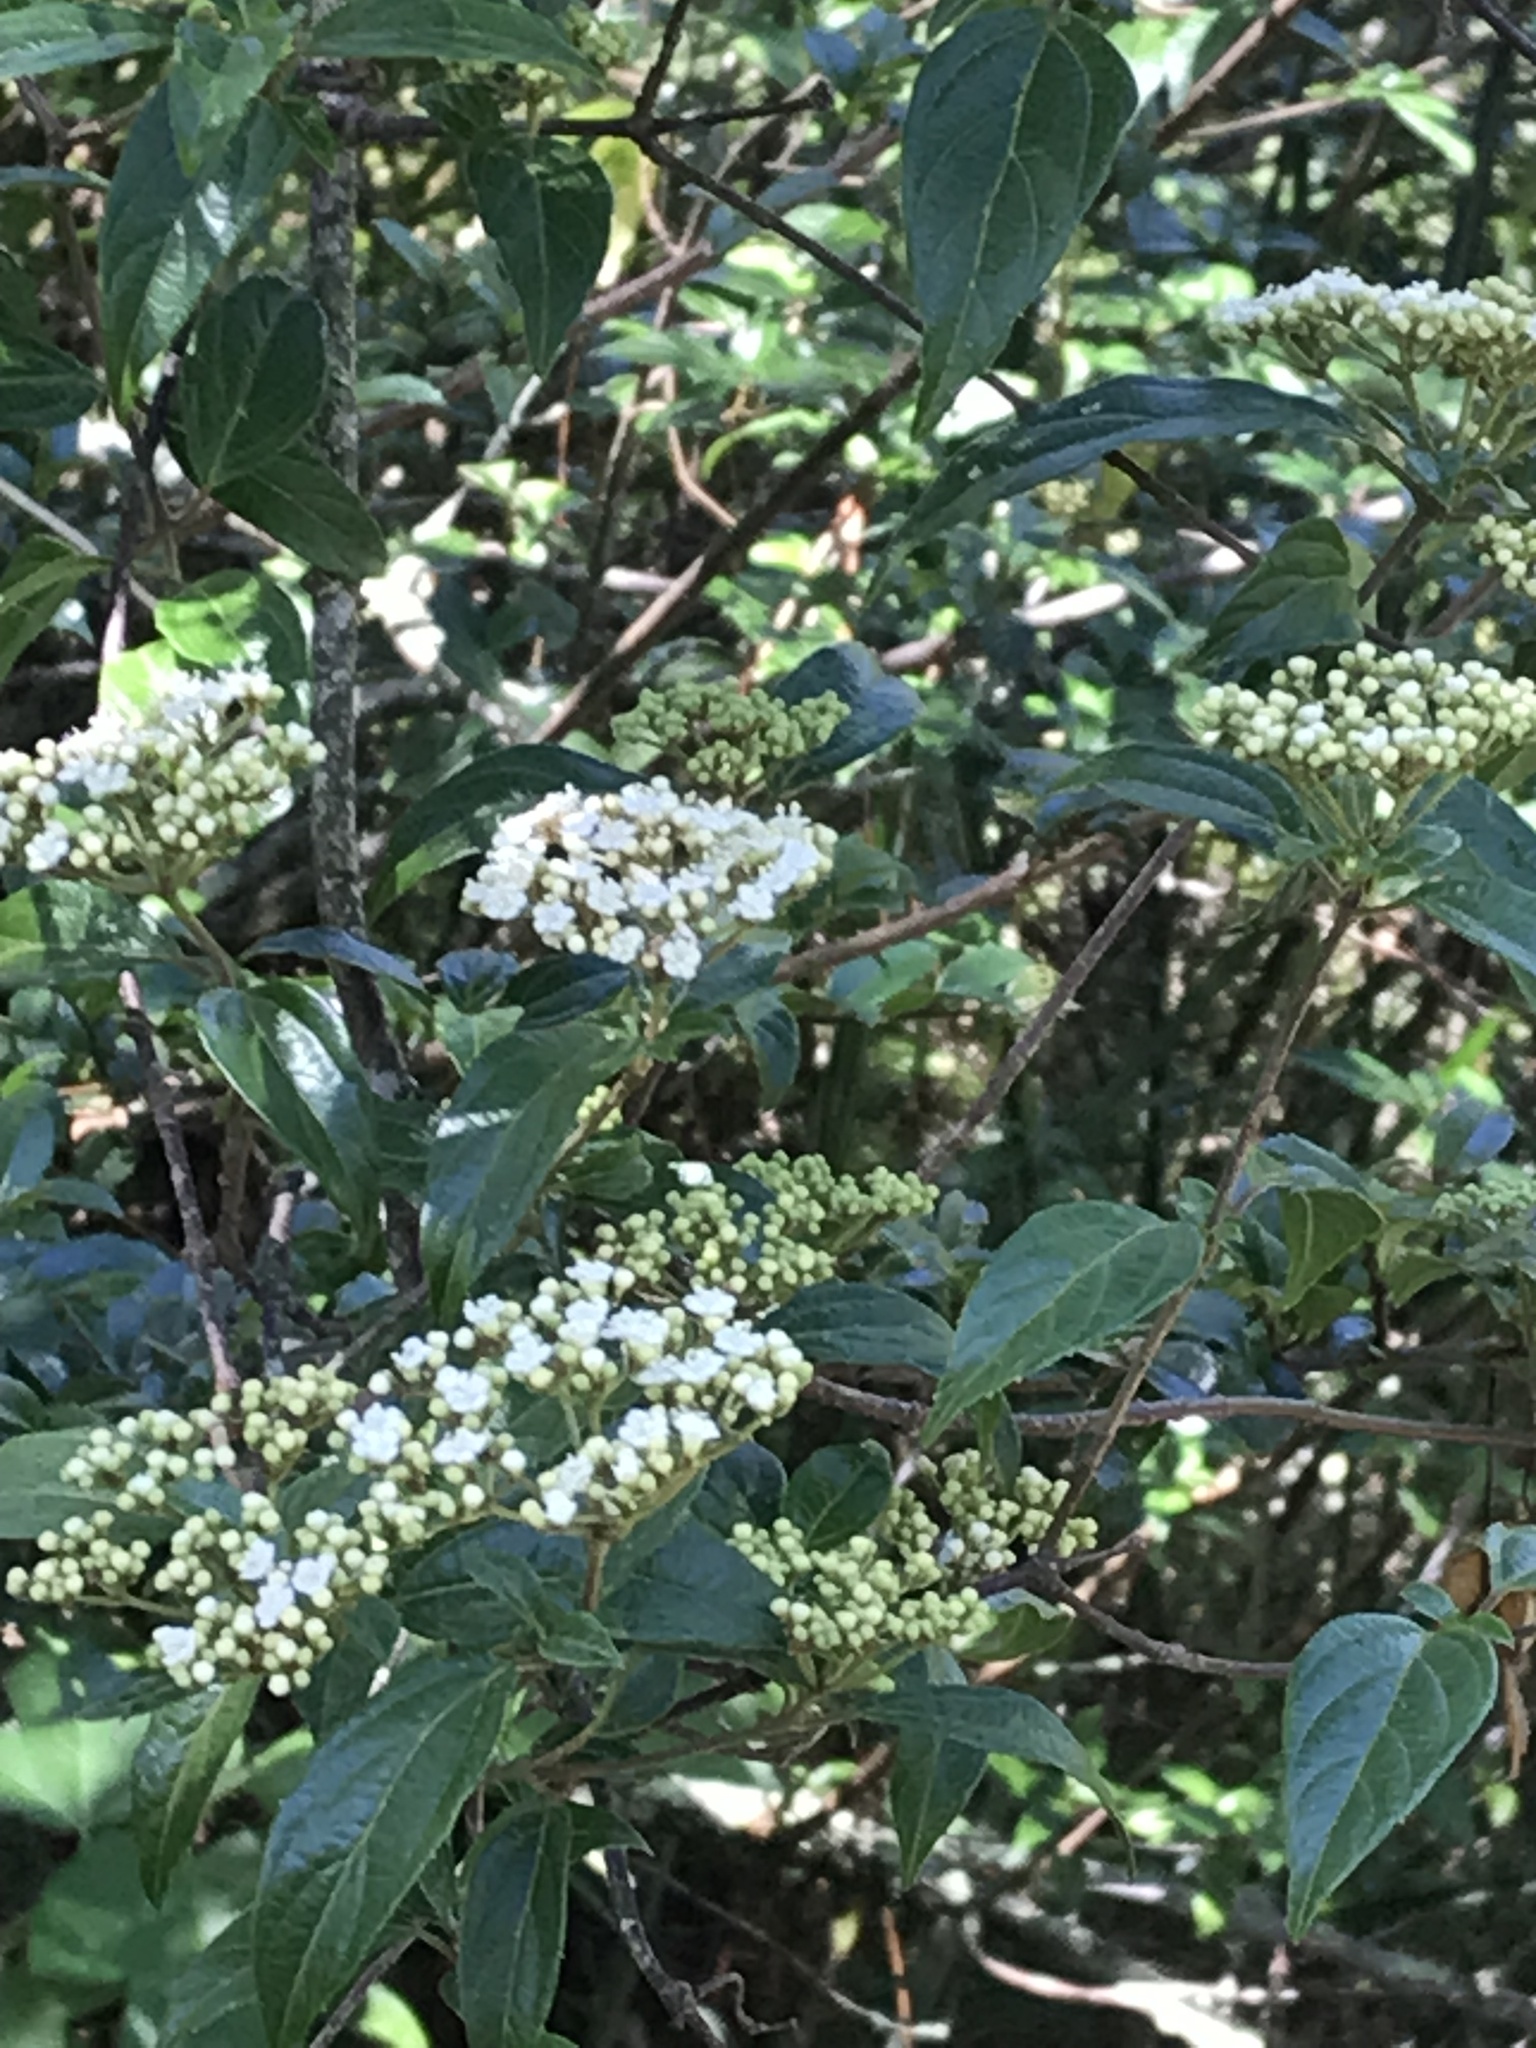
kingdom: Plantae
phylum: Tracheophyta
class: Magnoliopsida
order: Dipsacales
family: Viburnaceae
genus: Viburnum
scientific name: Viburnum foetidum
